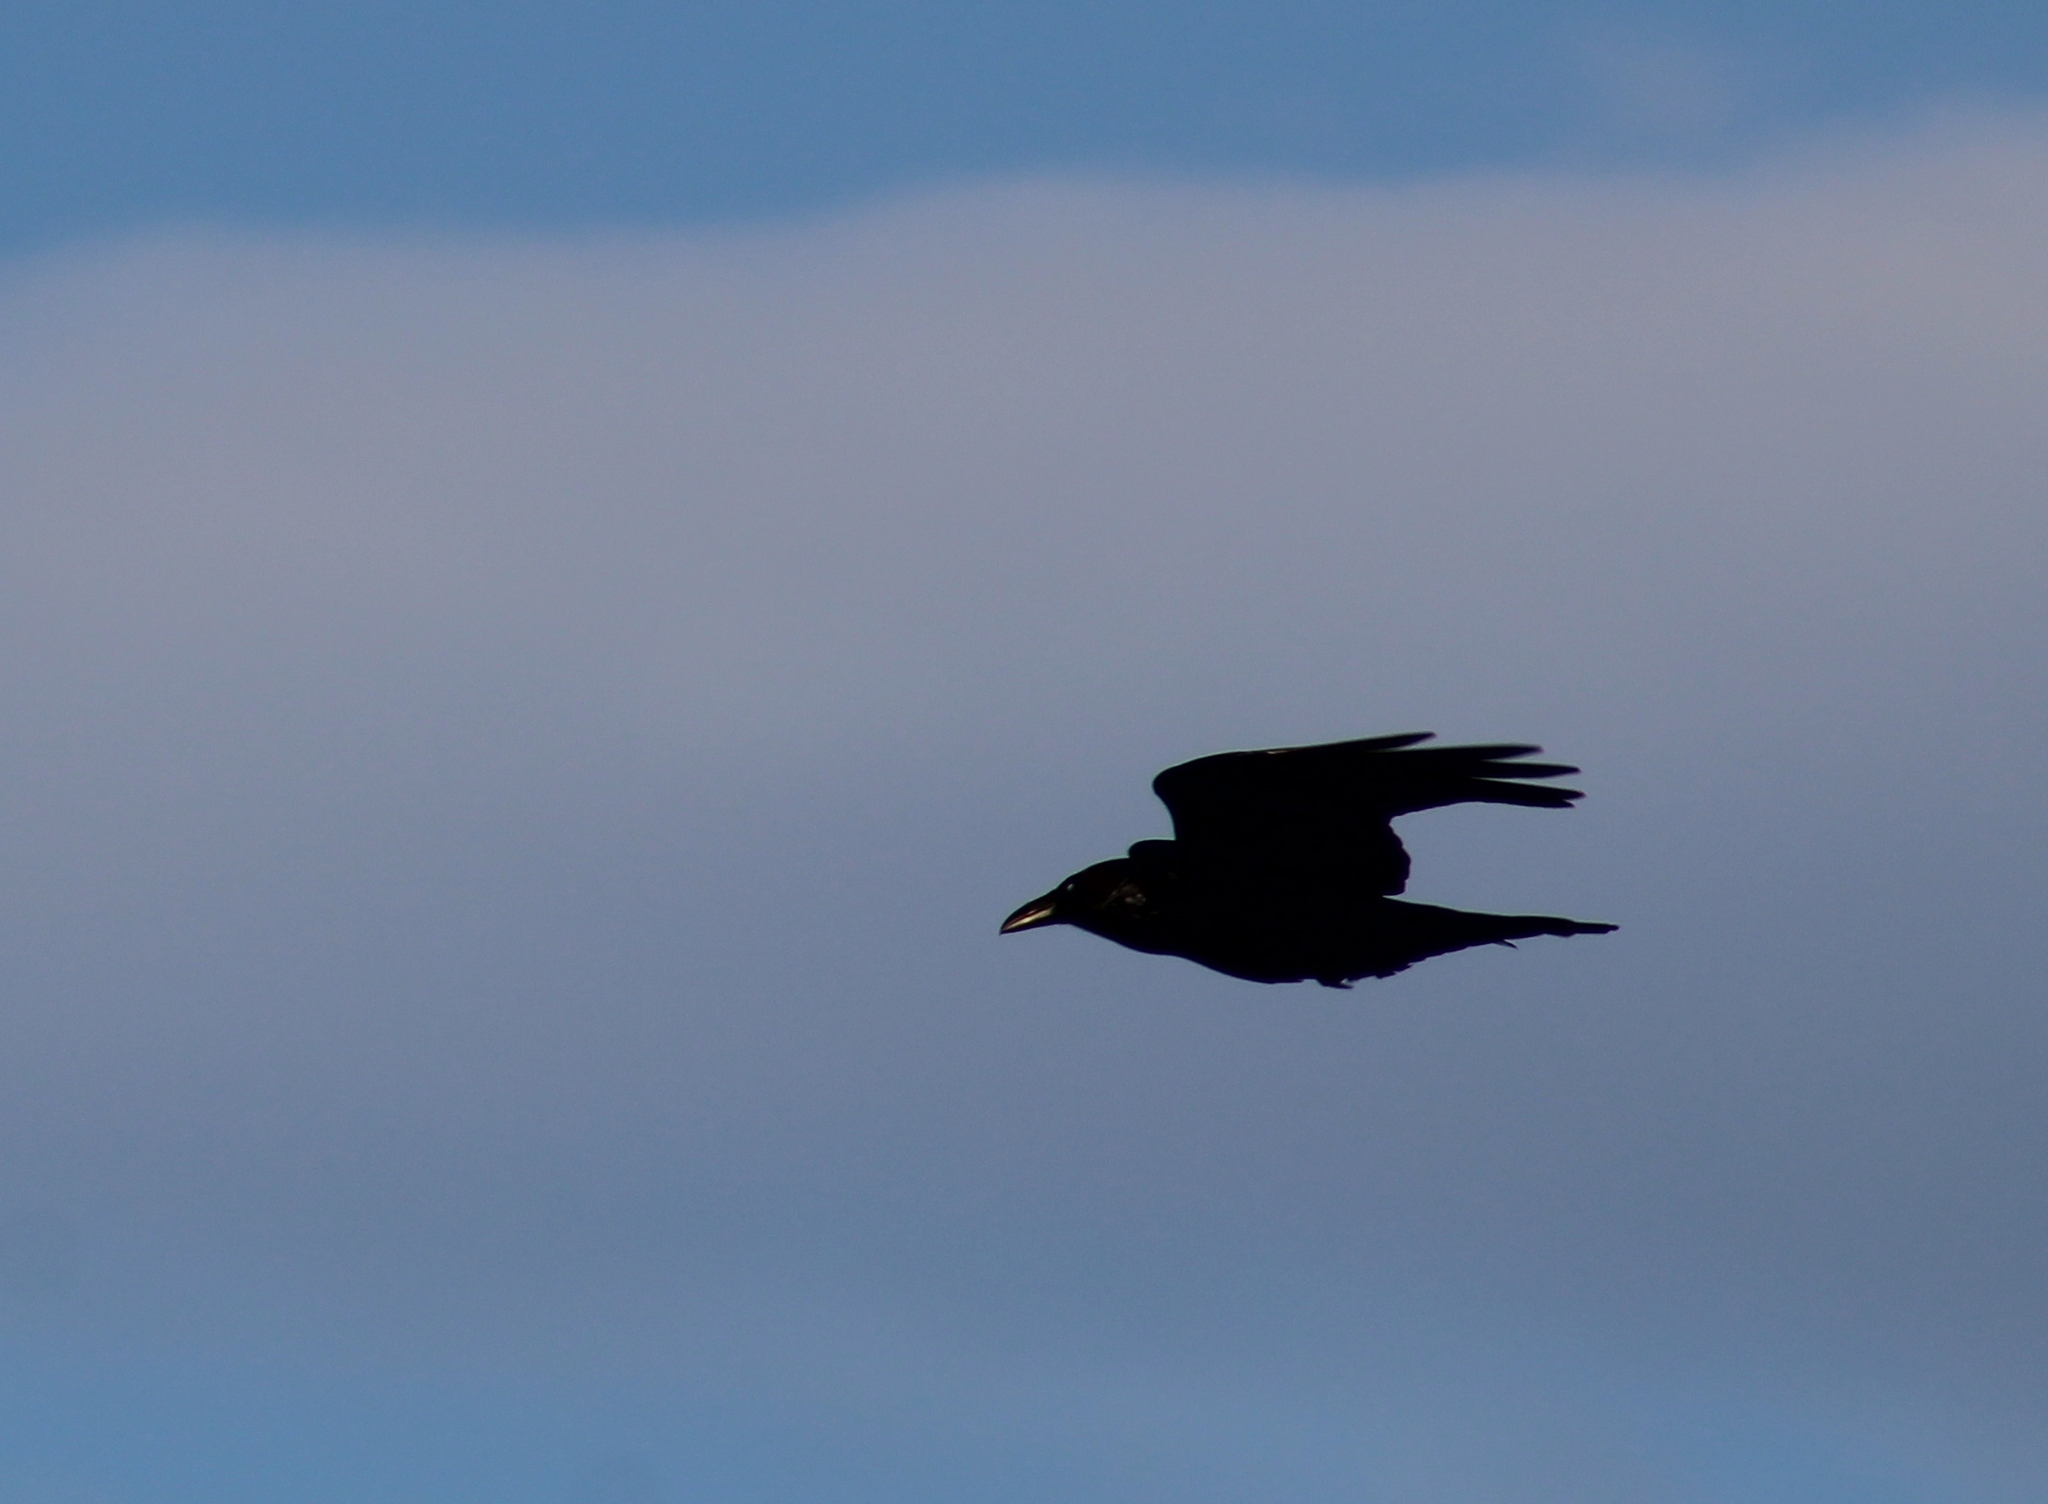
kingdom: Animalia
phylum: Chordata
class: Aves
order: Passeriformes
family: Corvidae
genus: Corvus
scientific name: Corvus corax
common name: Common raven
